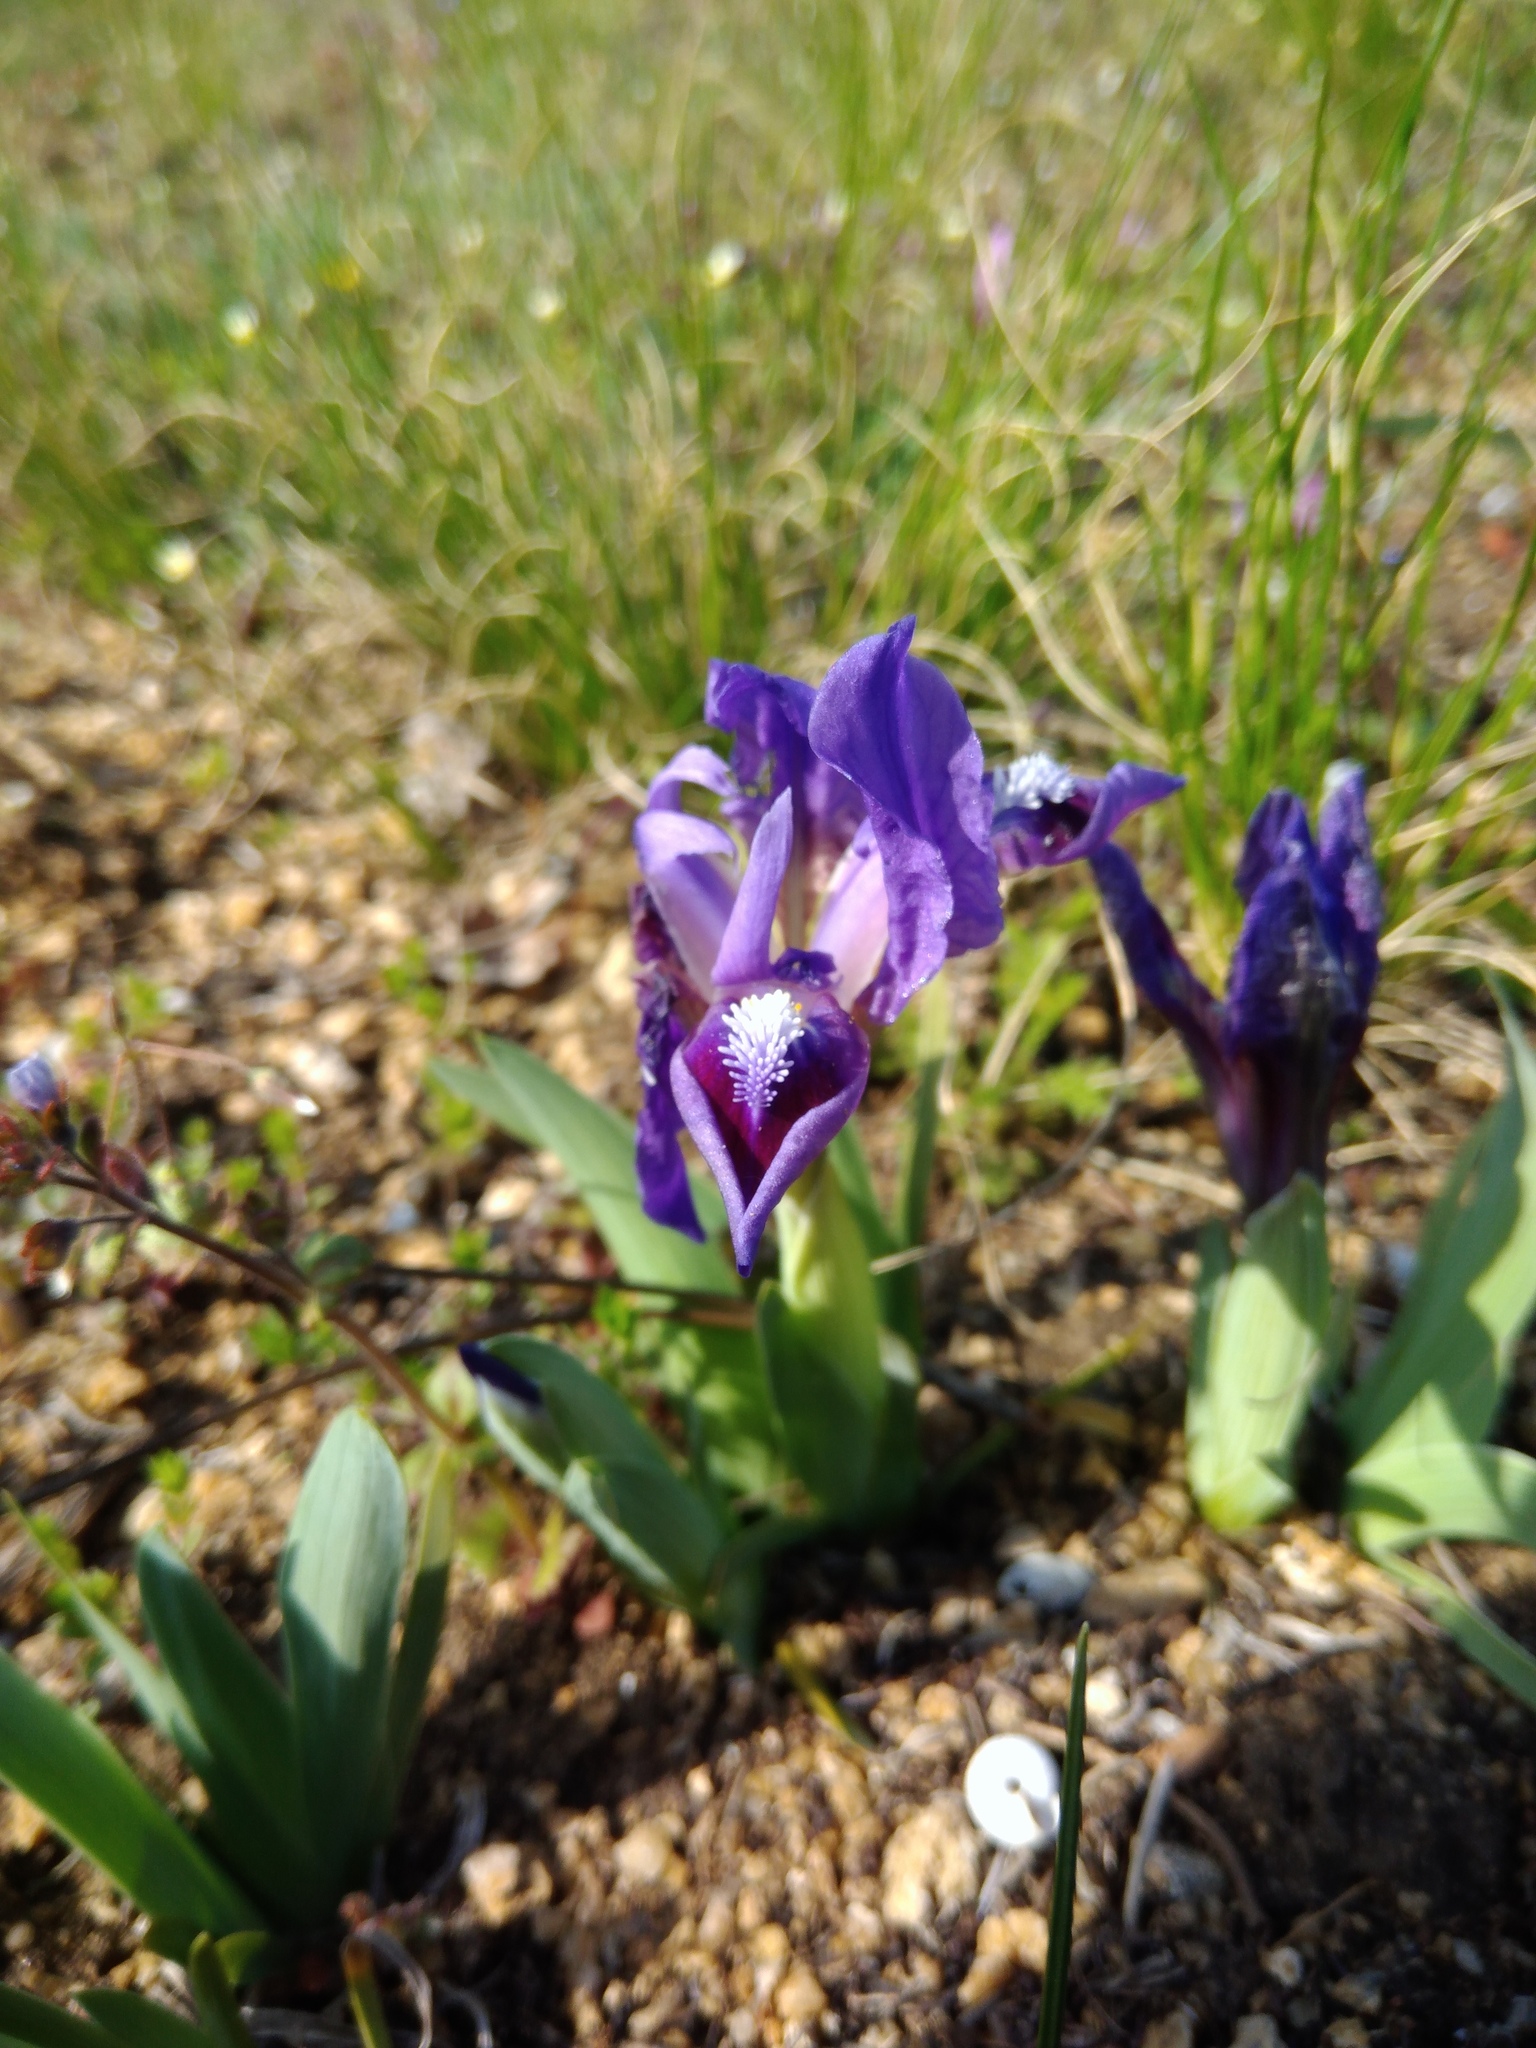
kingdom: Plantae
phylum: Tracheophyta
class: Liliopsida
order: Asparagales
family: Iridaceae
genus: Iris
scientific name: Iris pumila
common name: Dwarf iris
